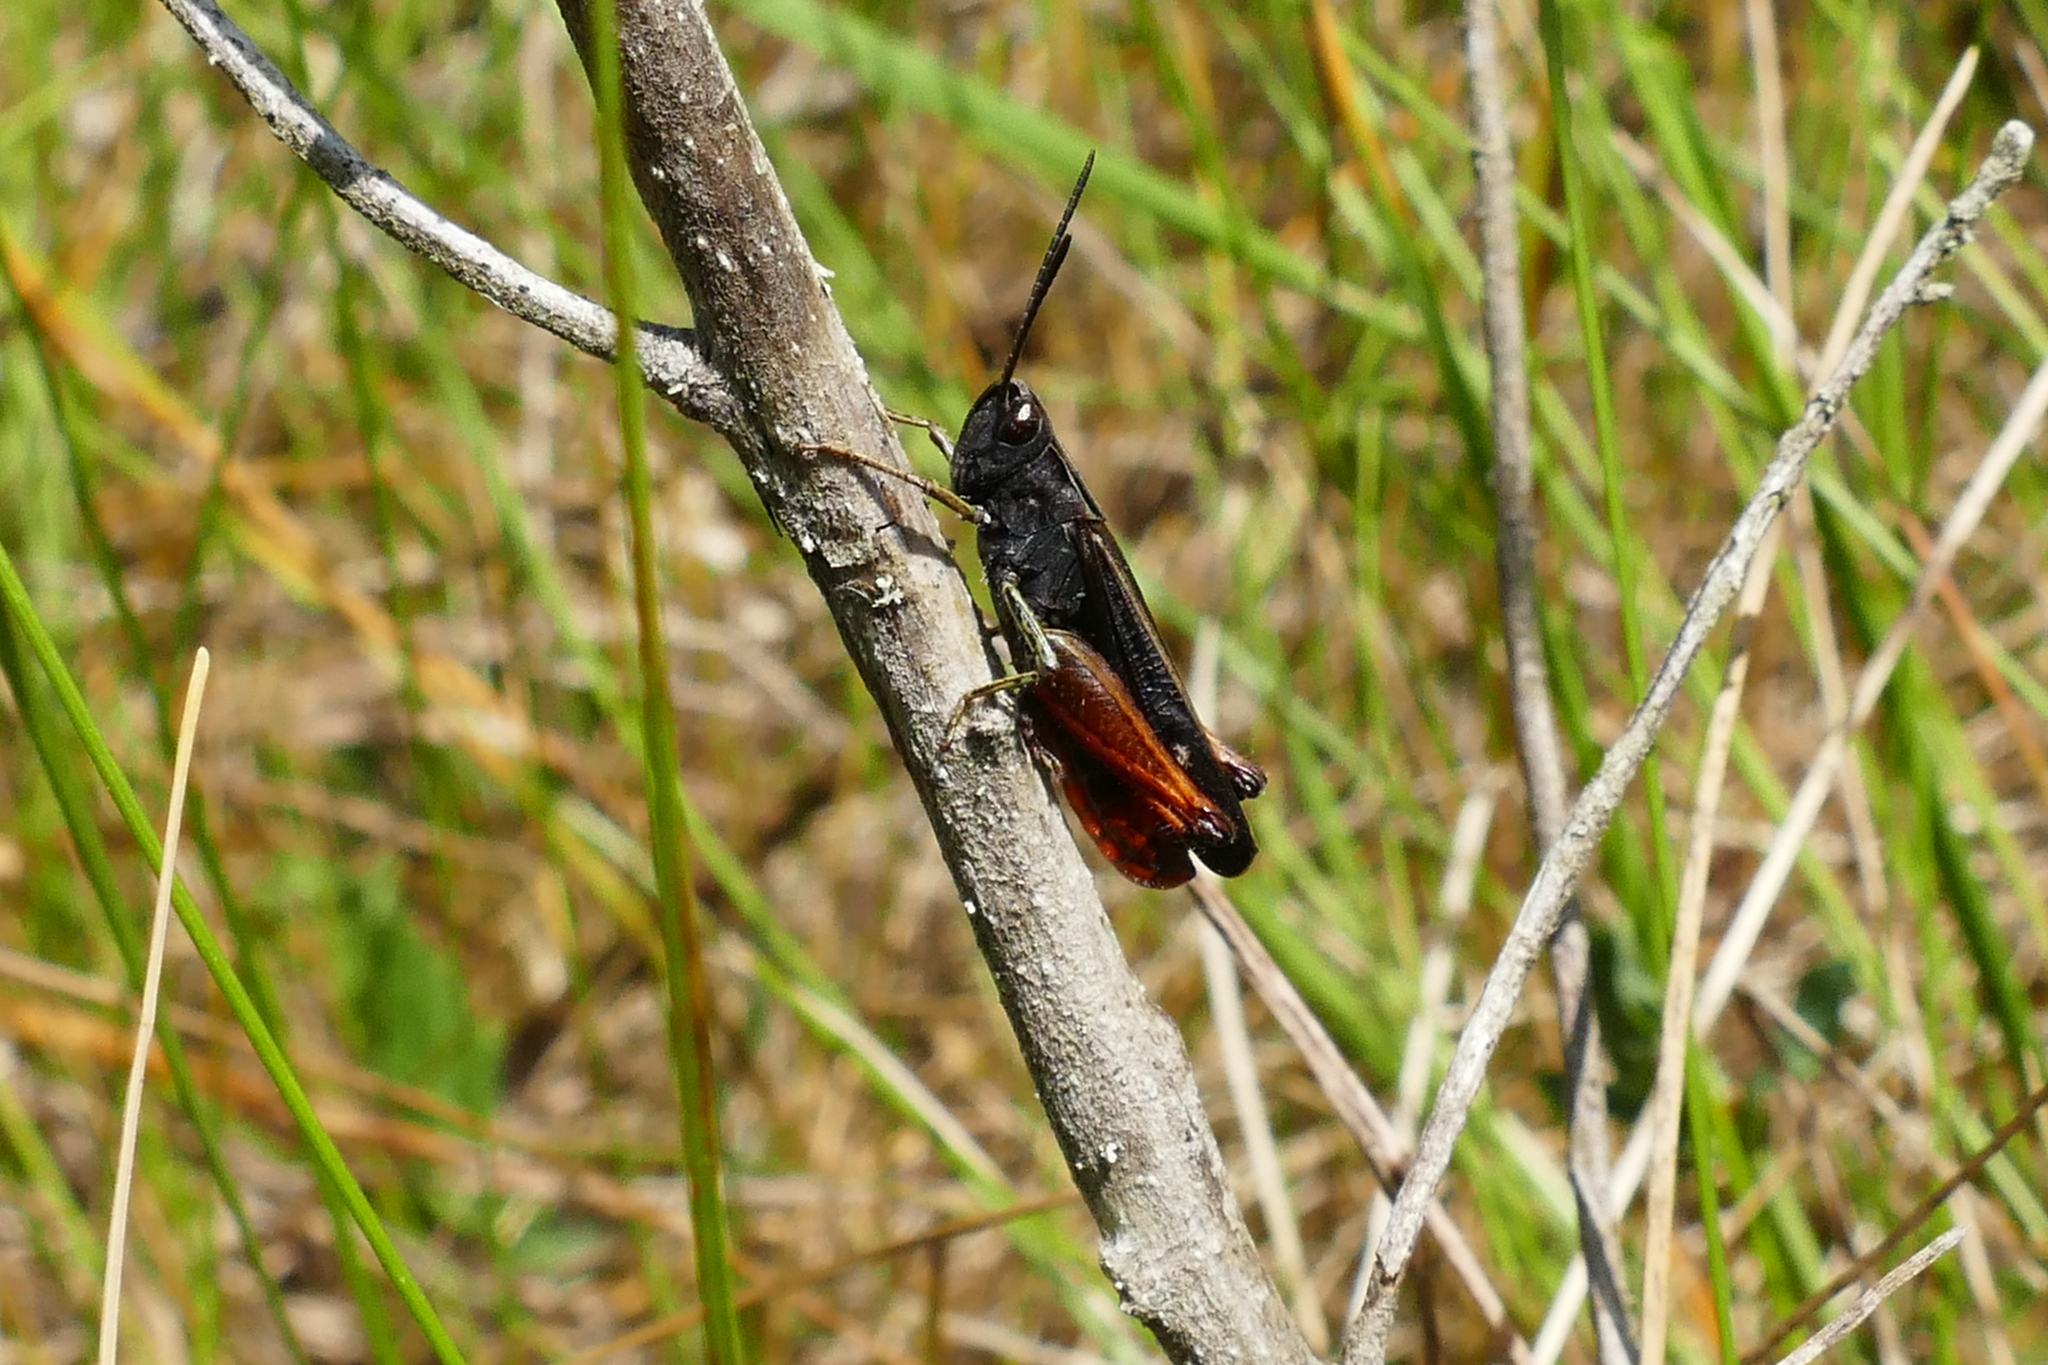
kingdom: Animalia
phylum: Arthropoda
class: Insecta
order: Orthoptera
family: Acrididae
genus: Omocestus
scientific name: Omocestus rufipes
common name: Woodland grasshopper
